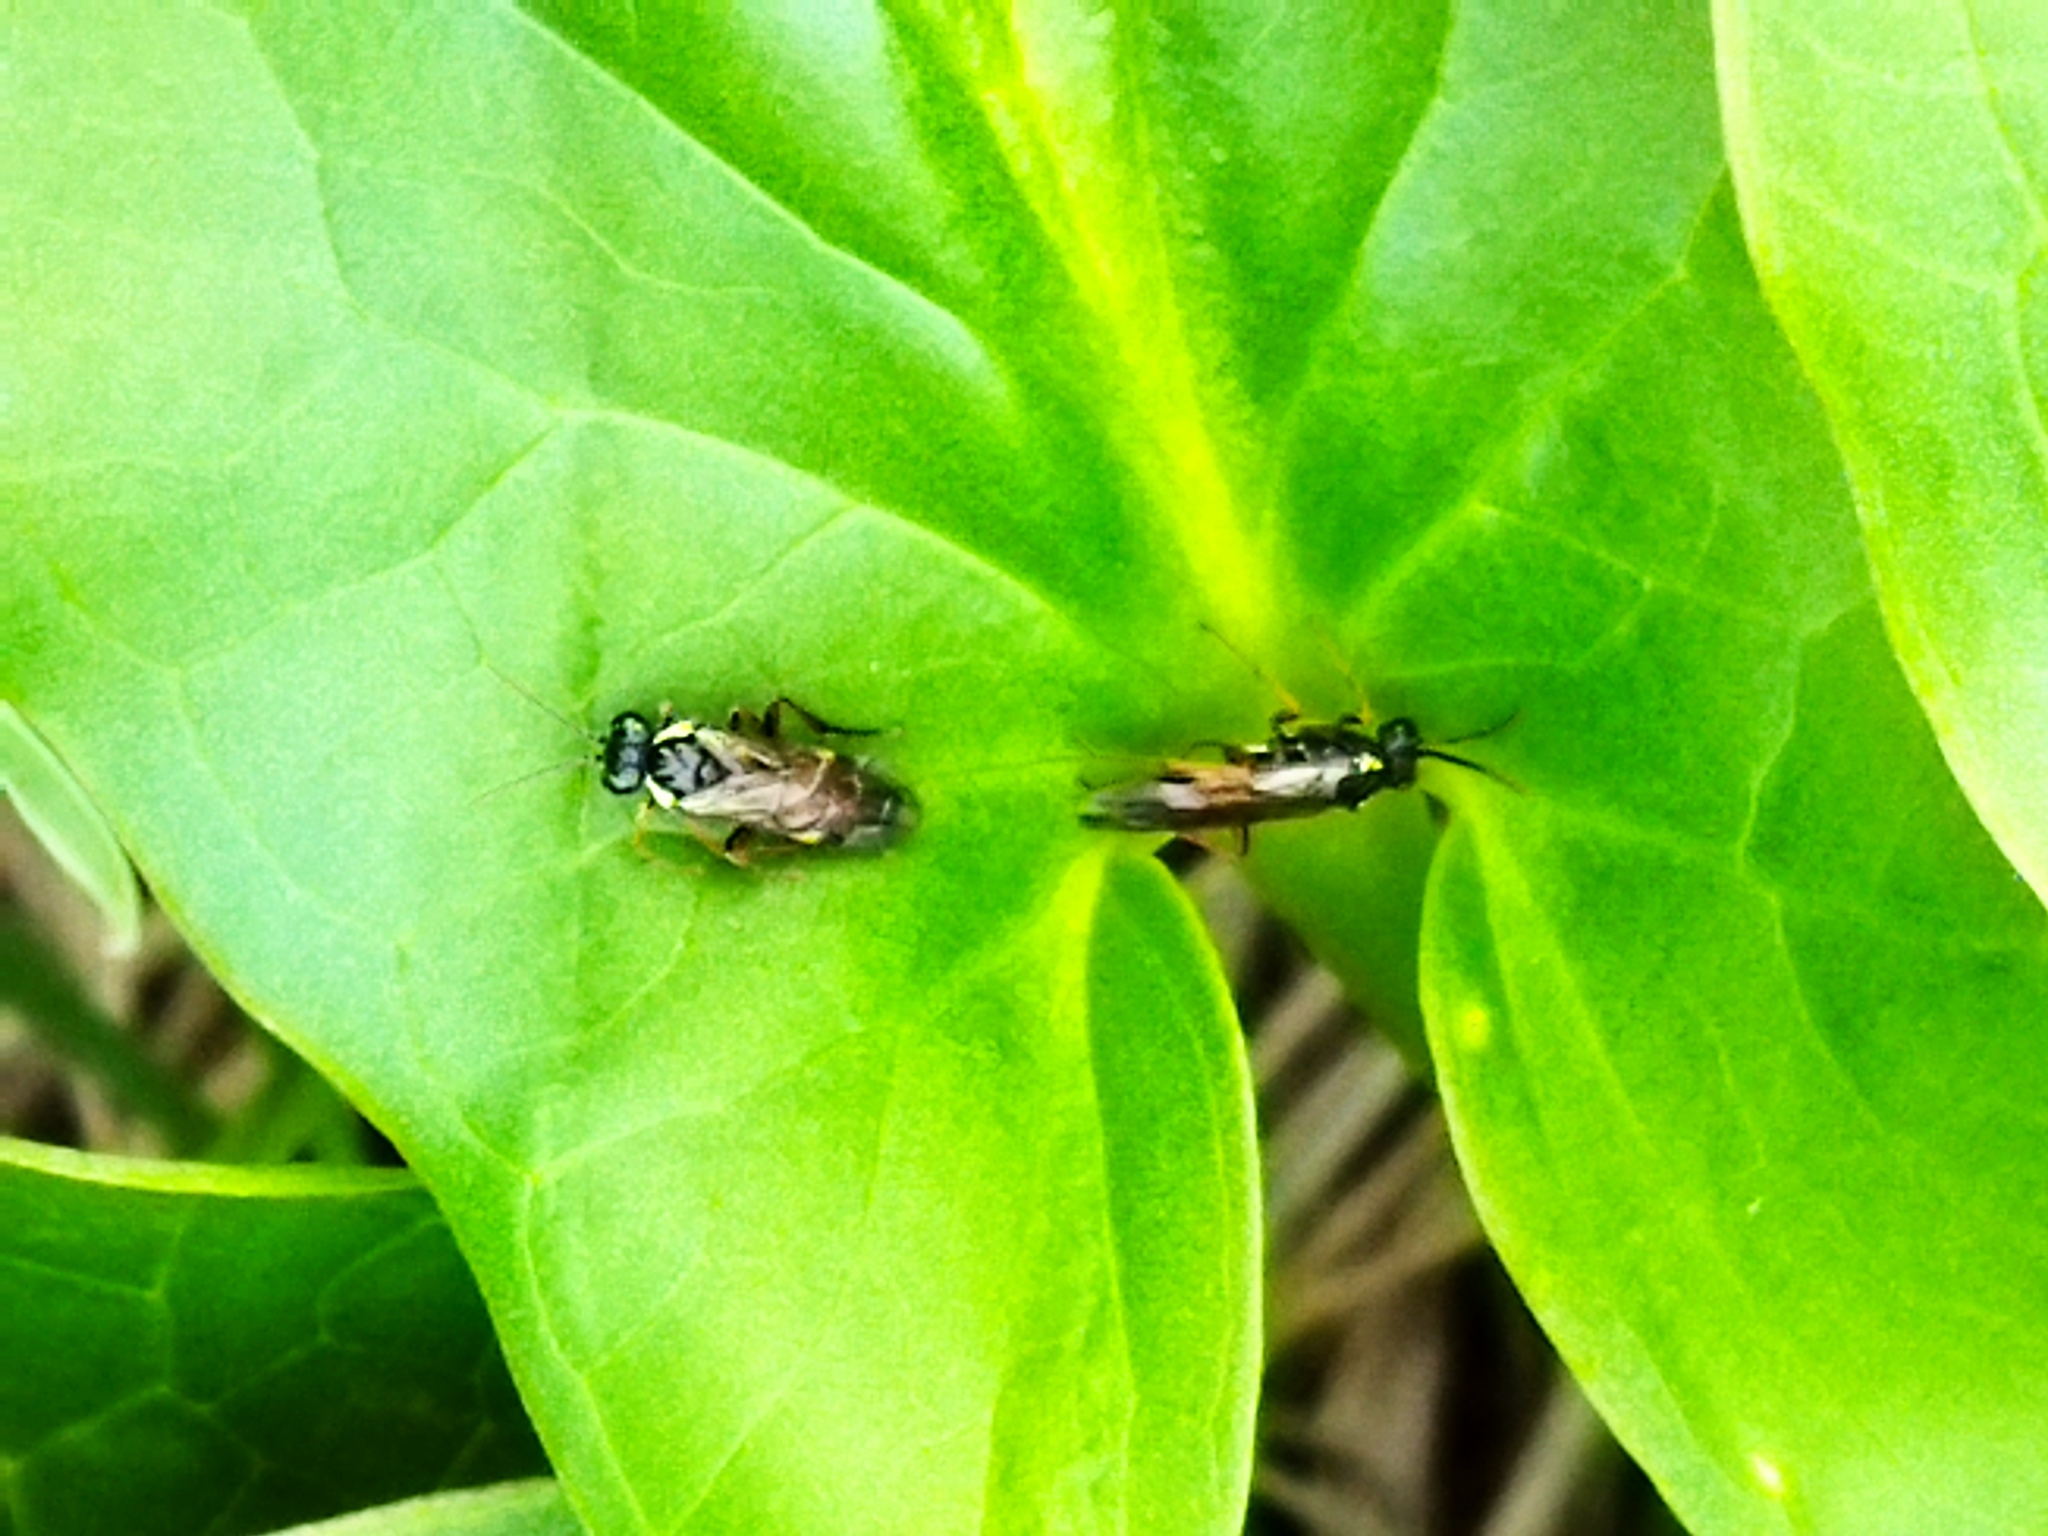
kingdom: Animalia
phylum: Arthropoda
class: Insecta
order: Hymenoptera
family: Tenthredinidae
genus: Aglaostigma
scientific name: Aglaostigma aucupariae
